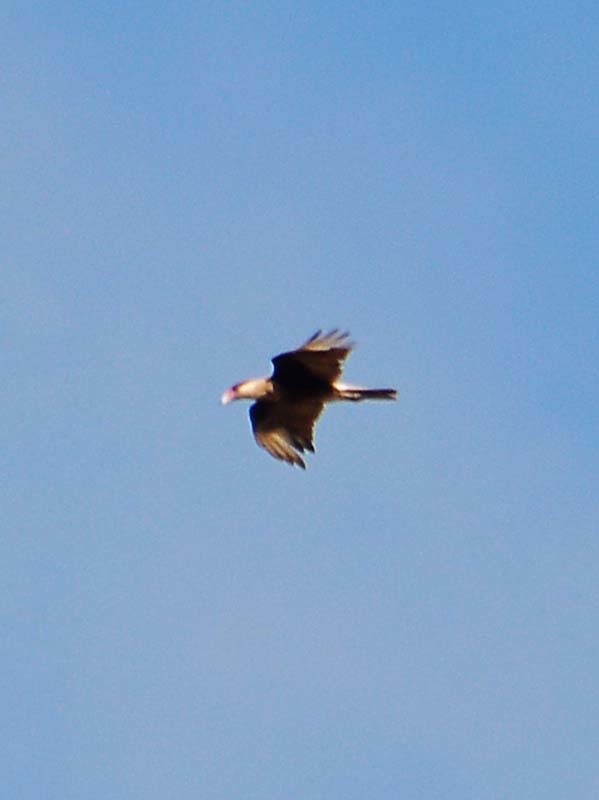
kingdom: Animalia
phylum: Chordata
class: Aves
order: Falconiformes
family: Falconidae
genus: Caracara
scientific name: Caracara plancus
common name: Southern caracara
